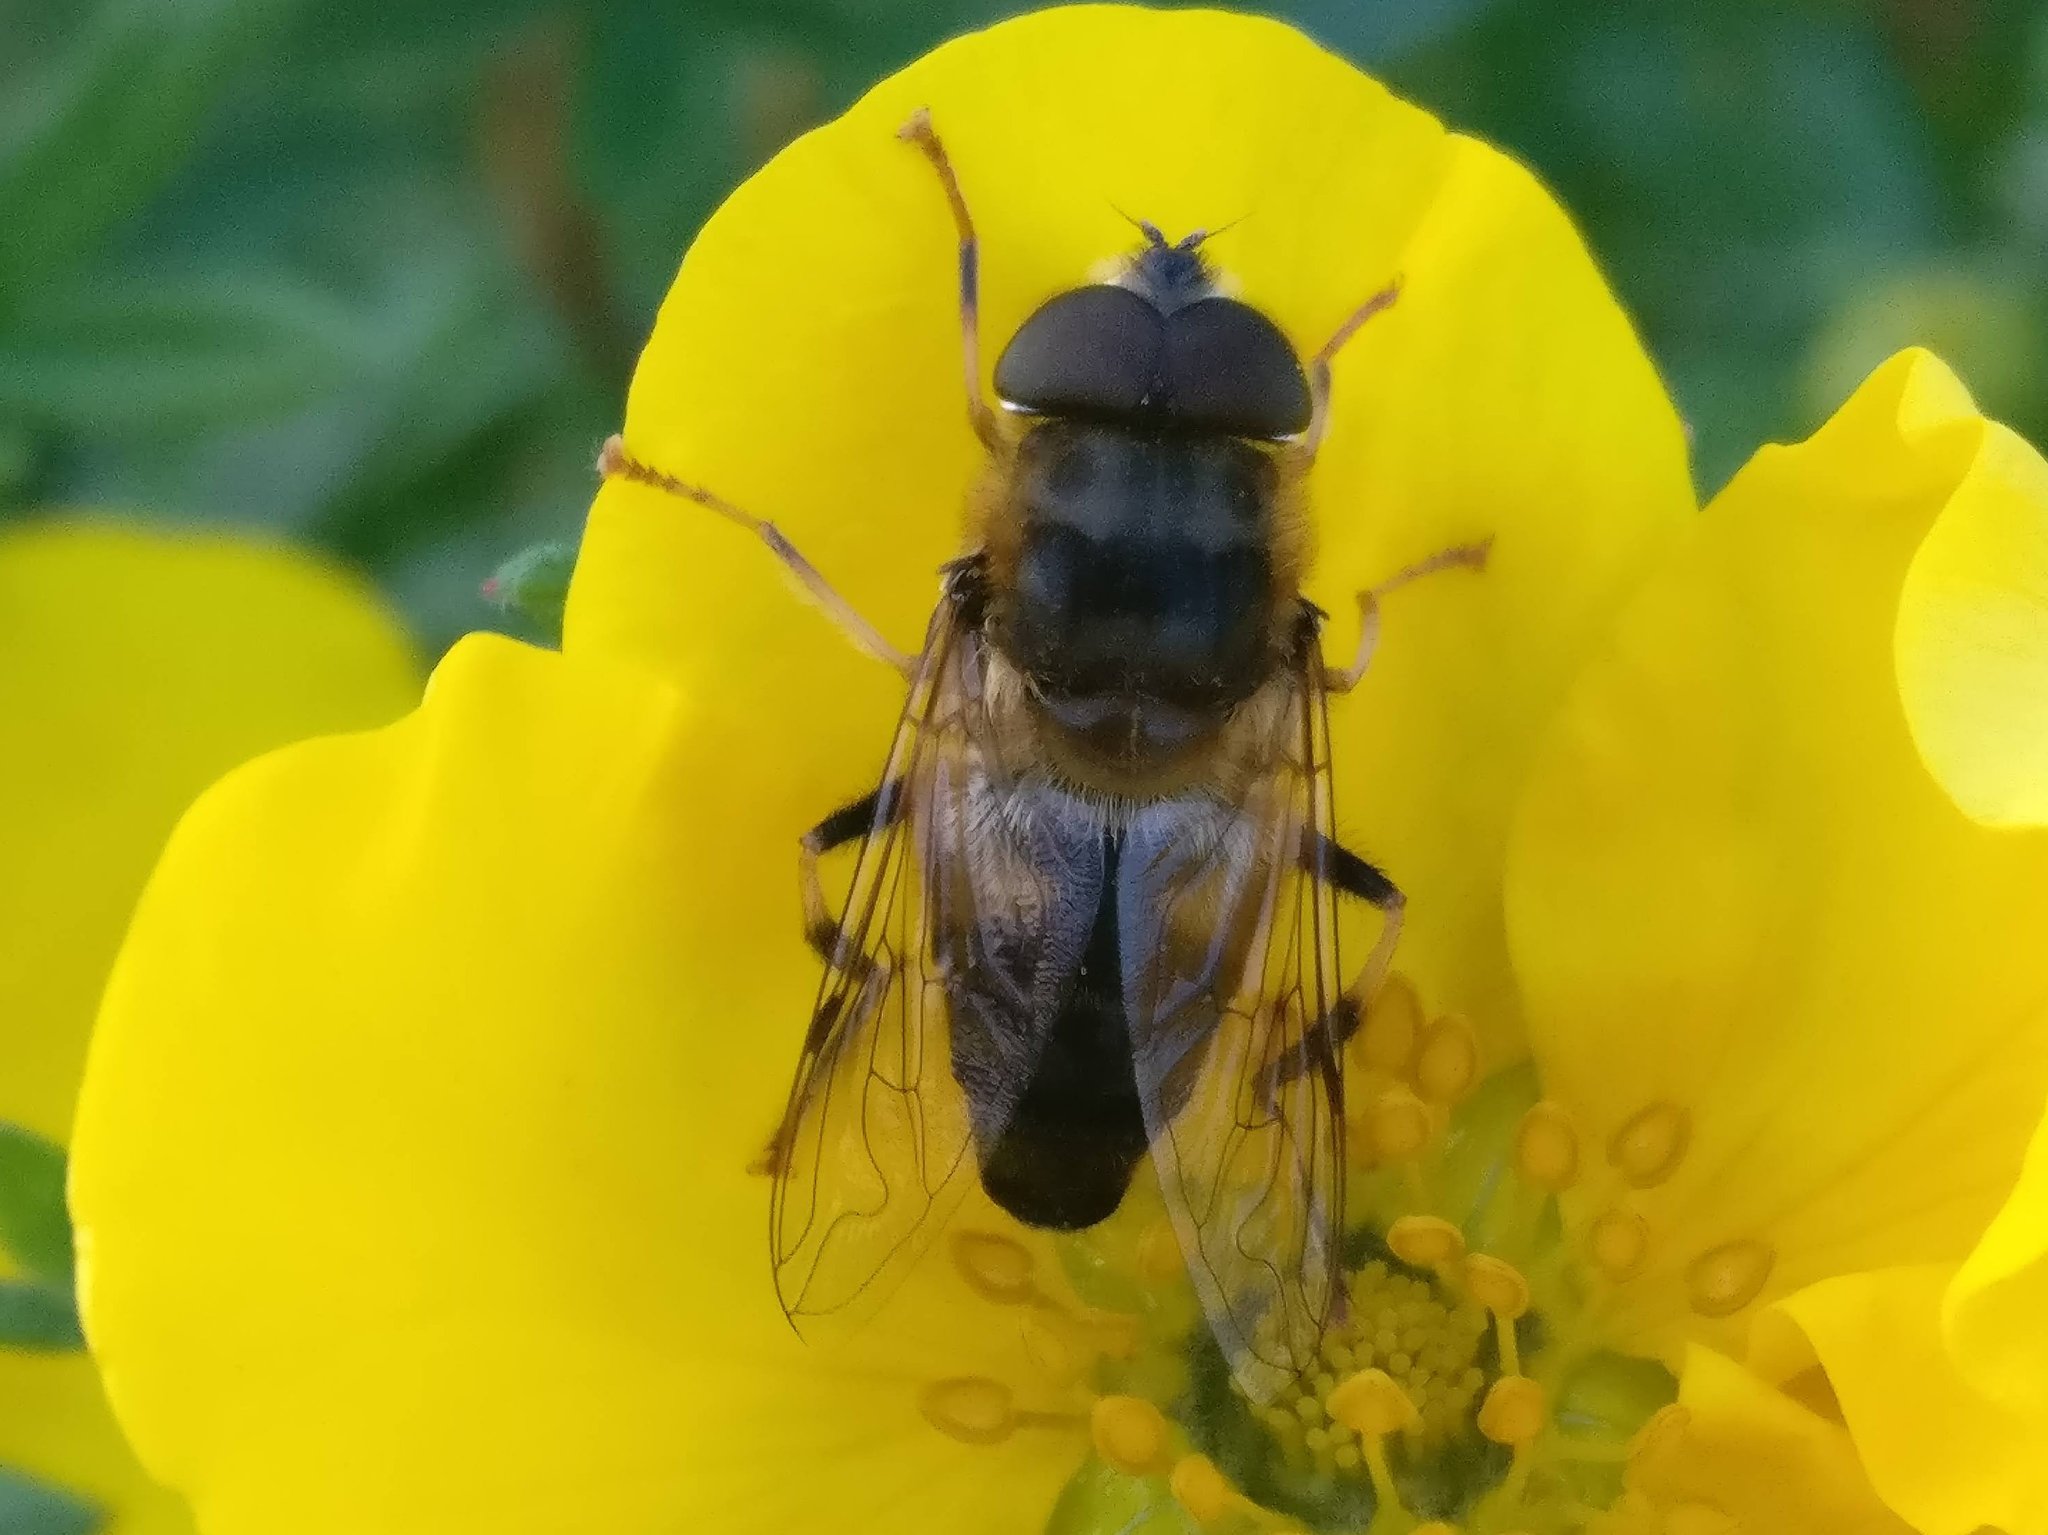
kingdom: Animalia
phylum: Arthropoda
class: Insecta
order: Diptera
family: Syrphidae
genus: Eristalis
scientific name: Eristalis pertinax
